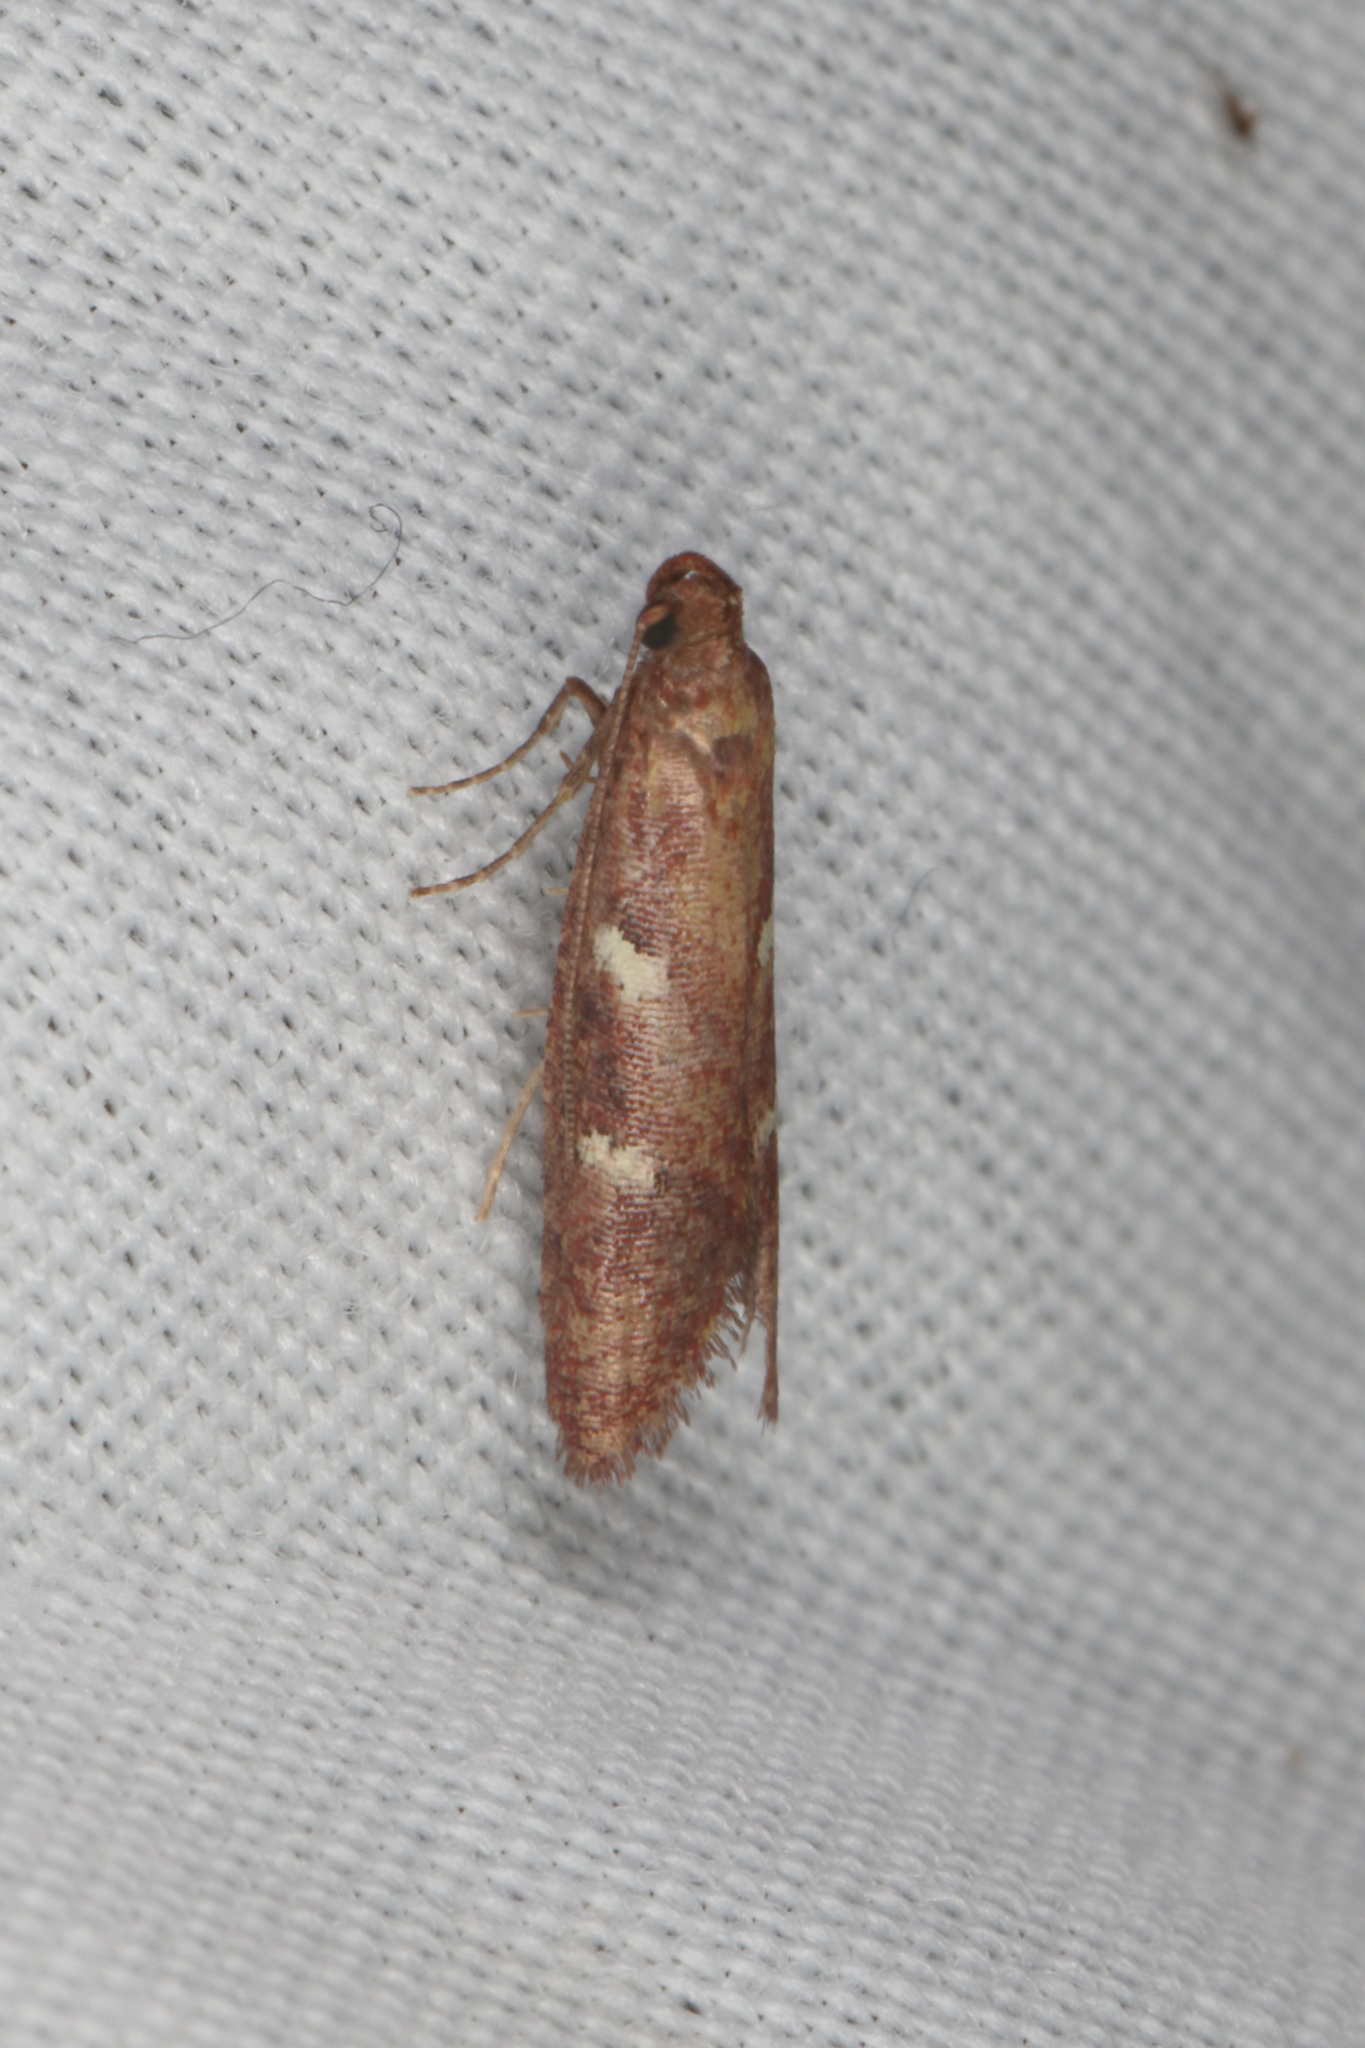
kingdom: Animalia
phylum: Arthropoda
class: Insecta
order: Lepidoptera
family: Plutellidae
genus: Cadmogenes
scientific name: Cadmogenes literata
